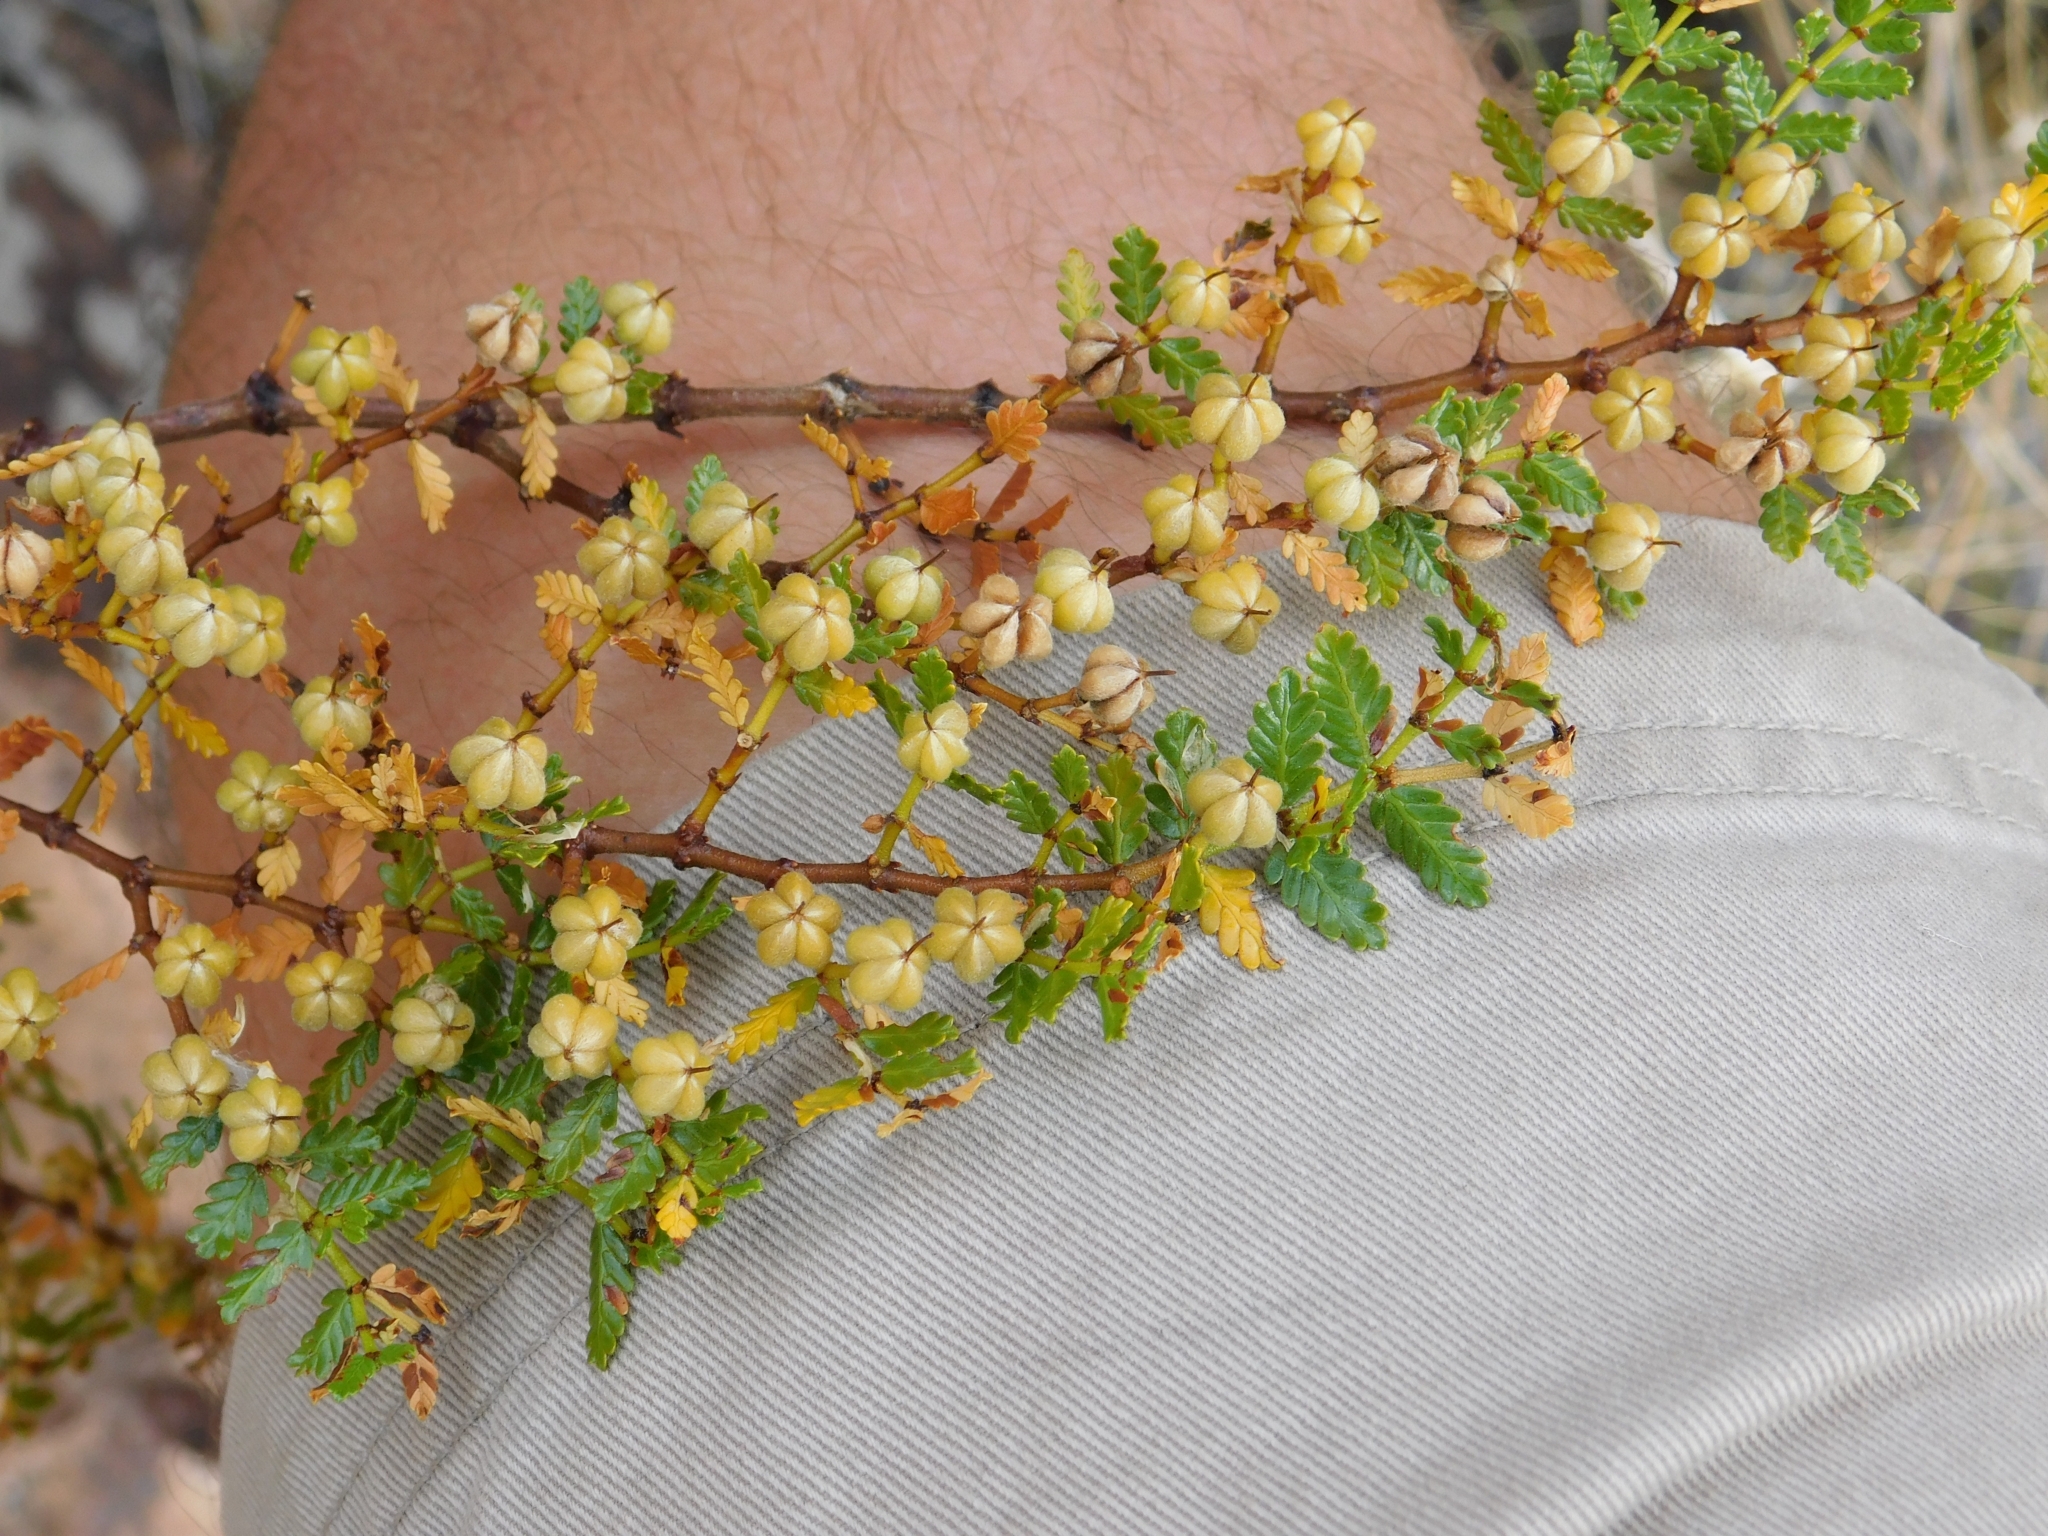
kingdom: Plantae
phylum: Tracheophyta
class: Magnoliopsida
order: Zygophyllales
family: Zygophyllaceae
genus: Larrea
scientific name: Larrea nitida
